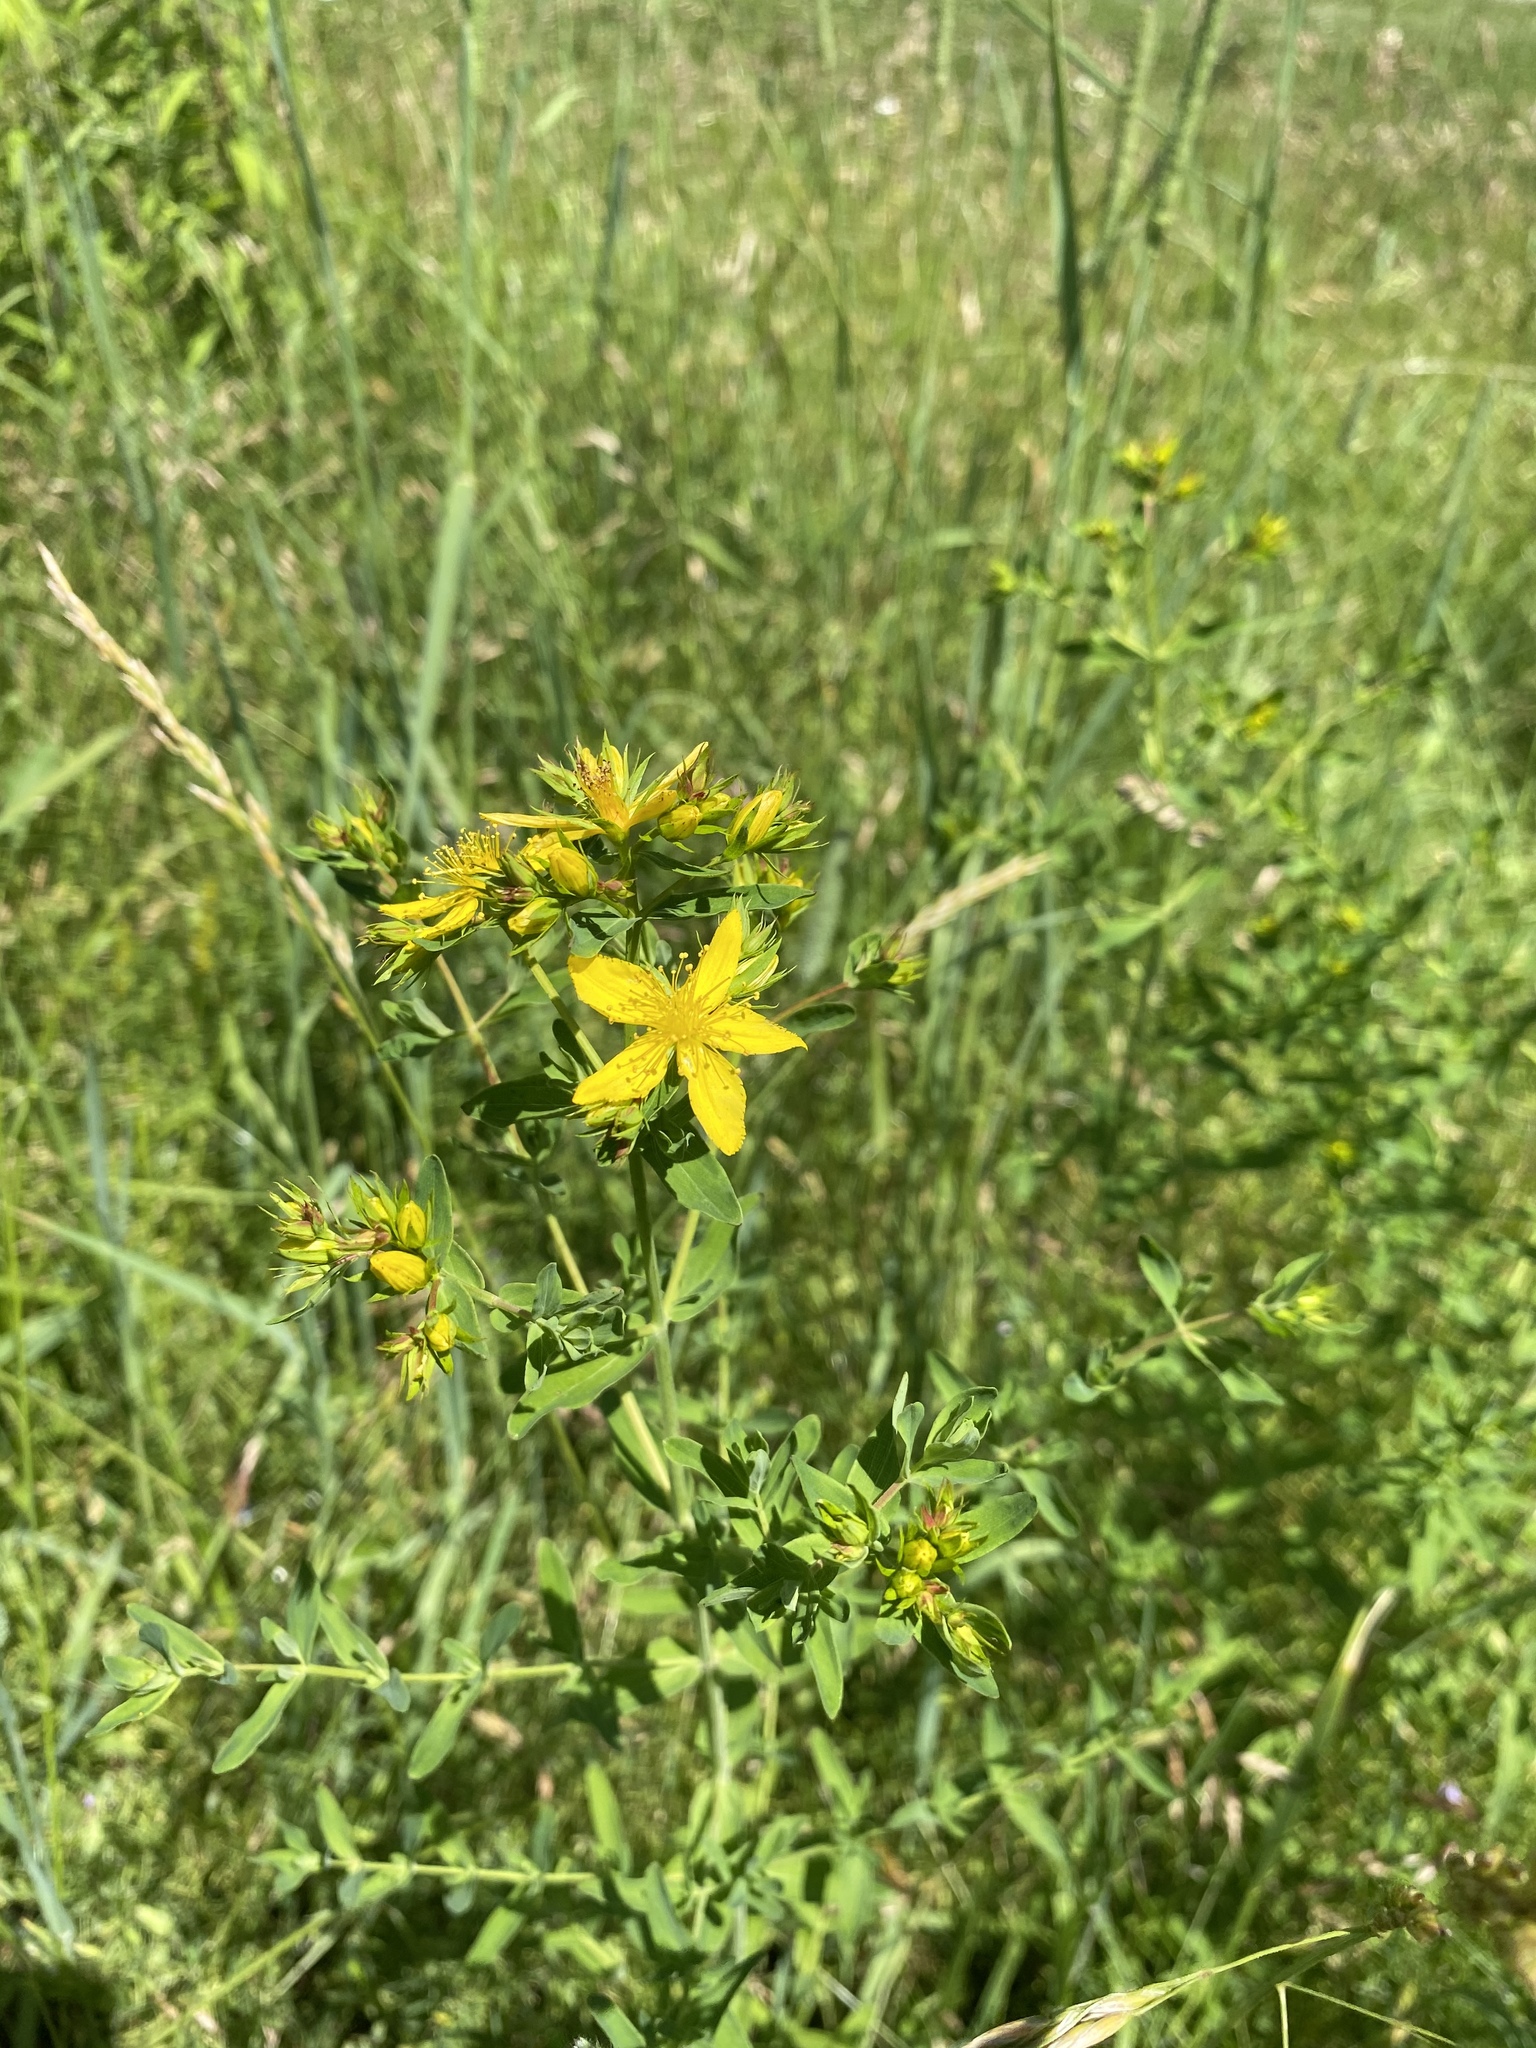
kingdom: Plantae
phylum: Tracheophyta
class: Magnoliopsida
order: Malpighiales
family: Hypericaceae
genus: Hypericum
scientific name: Hypericum perforatum
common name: Common st. johnswort
